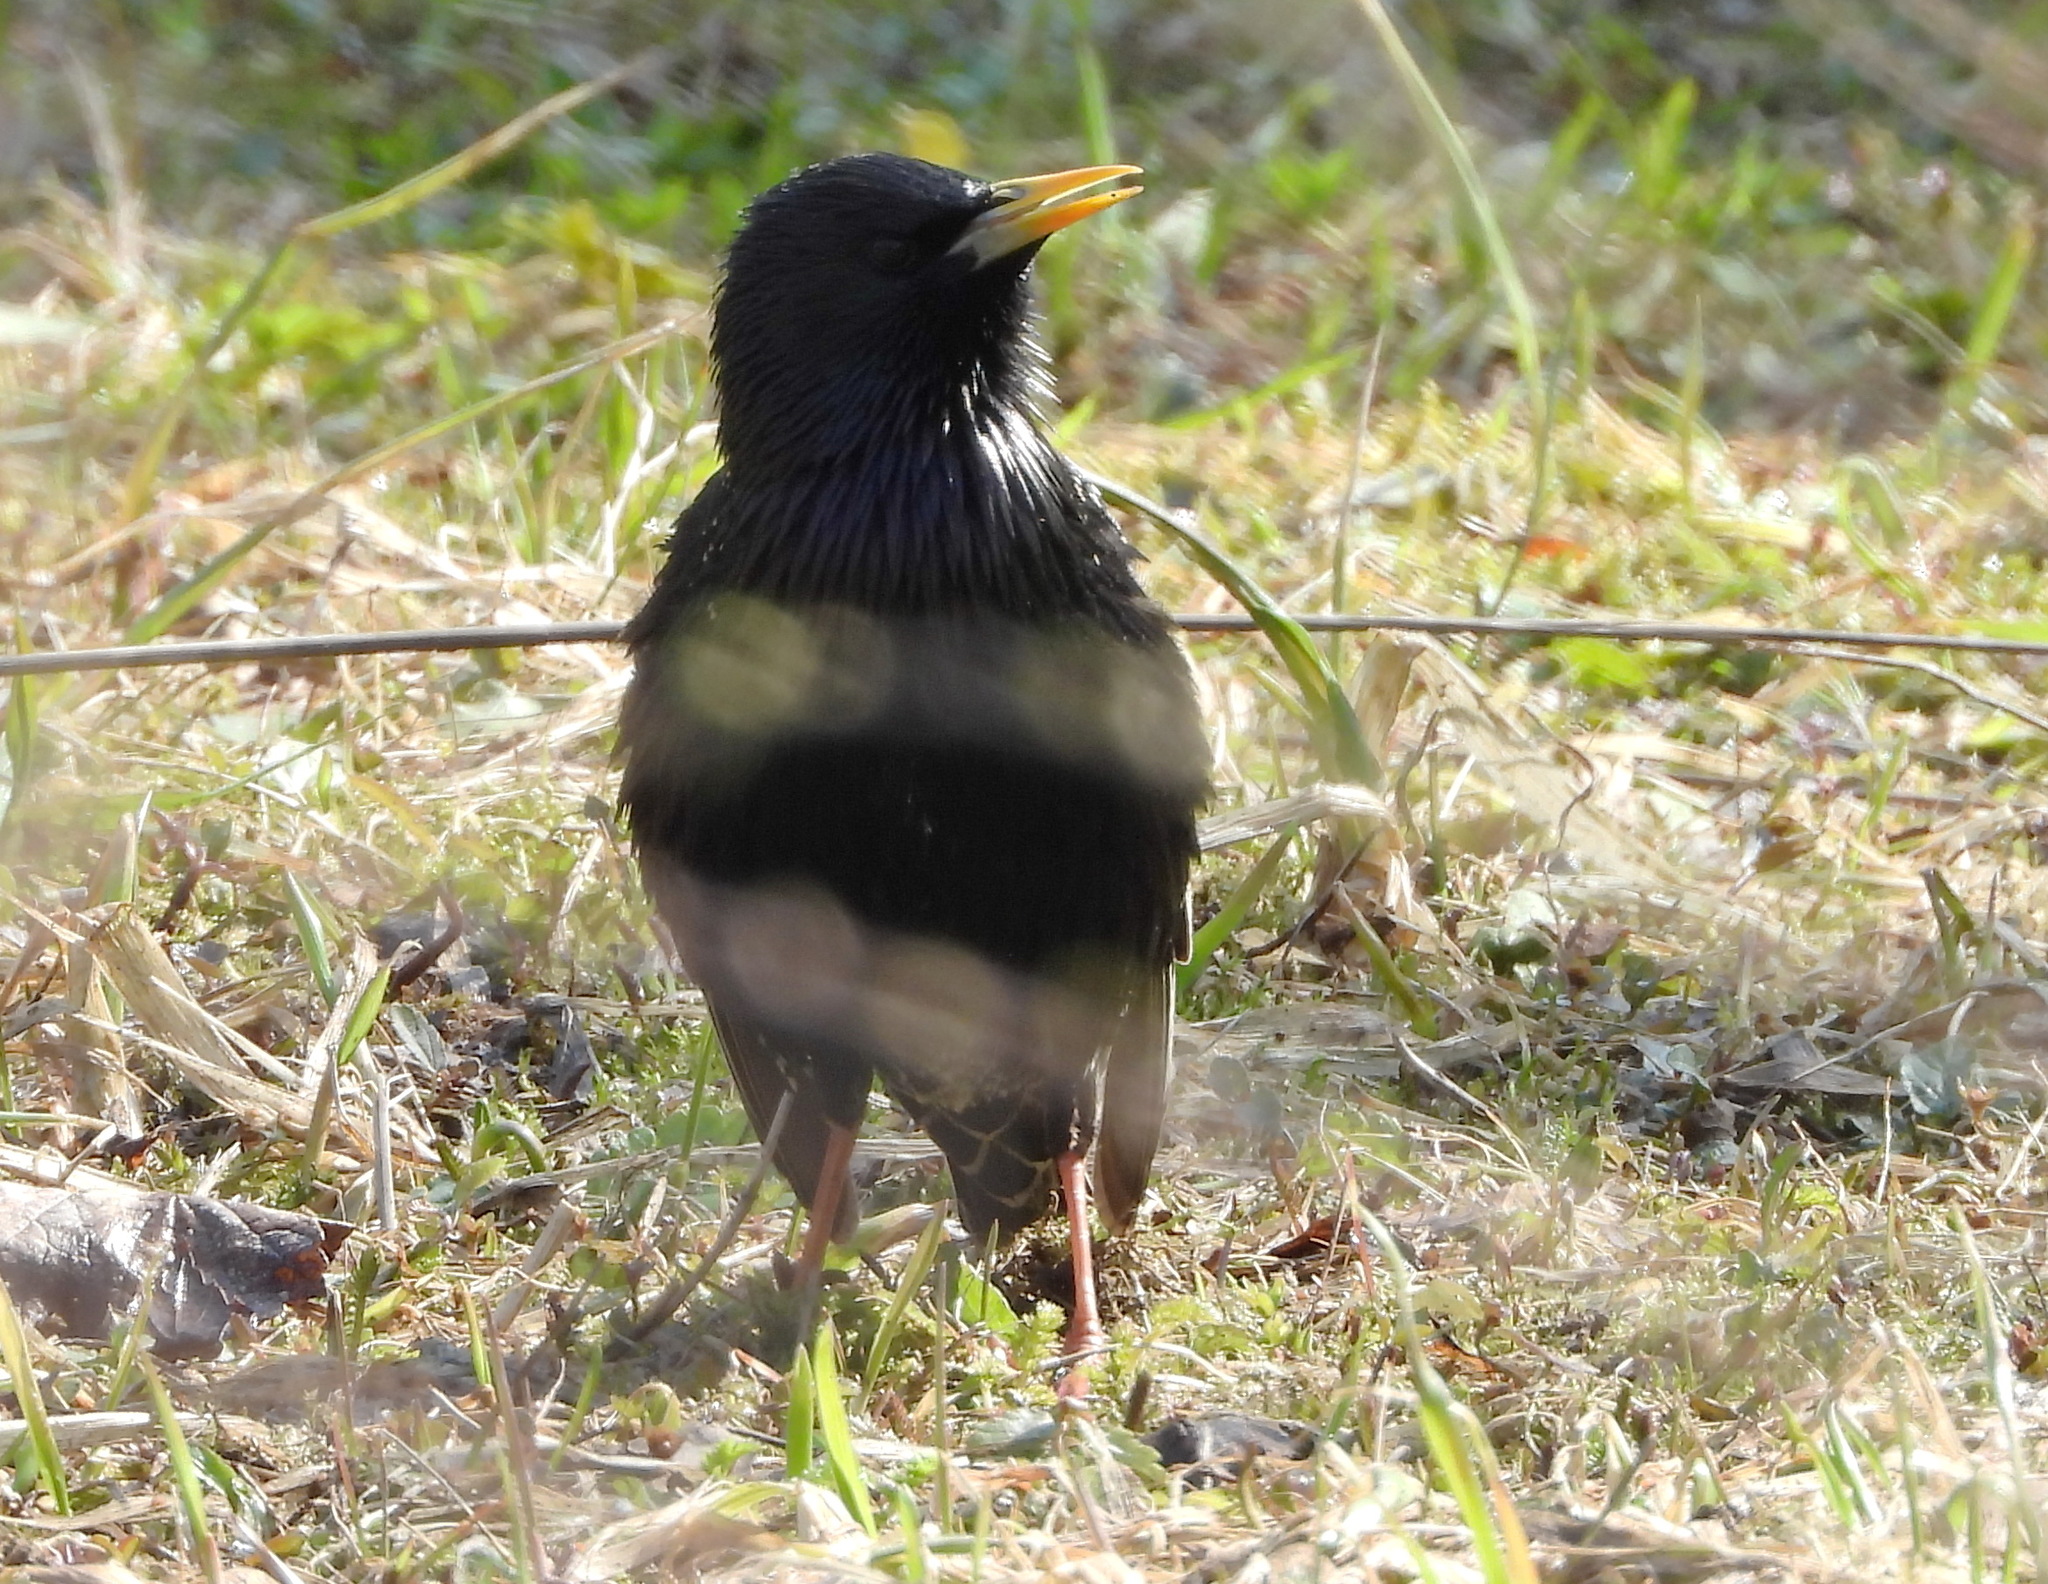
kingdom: Animalia
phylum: Chordata
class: Aves
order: Passeriformes
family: Sturnidae
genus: Sturnus
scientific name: Sturnus vulgaris
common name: Common starling
